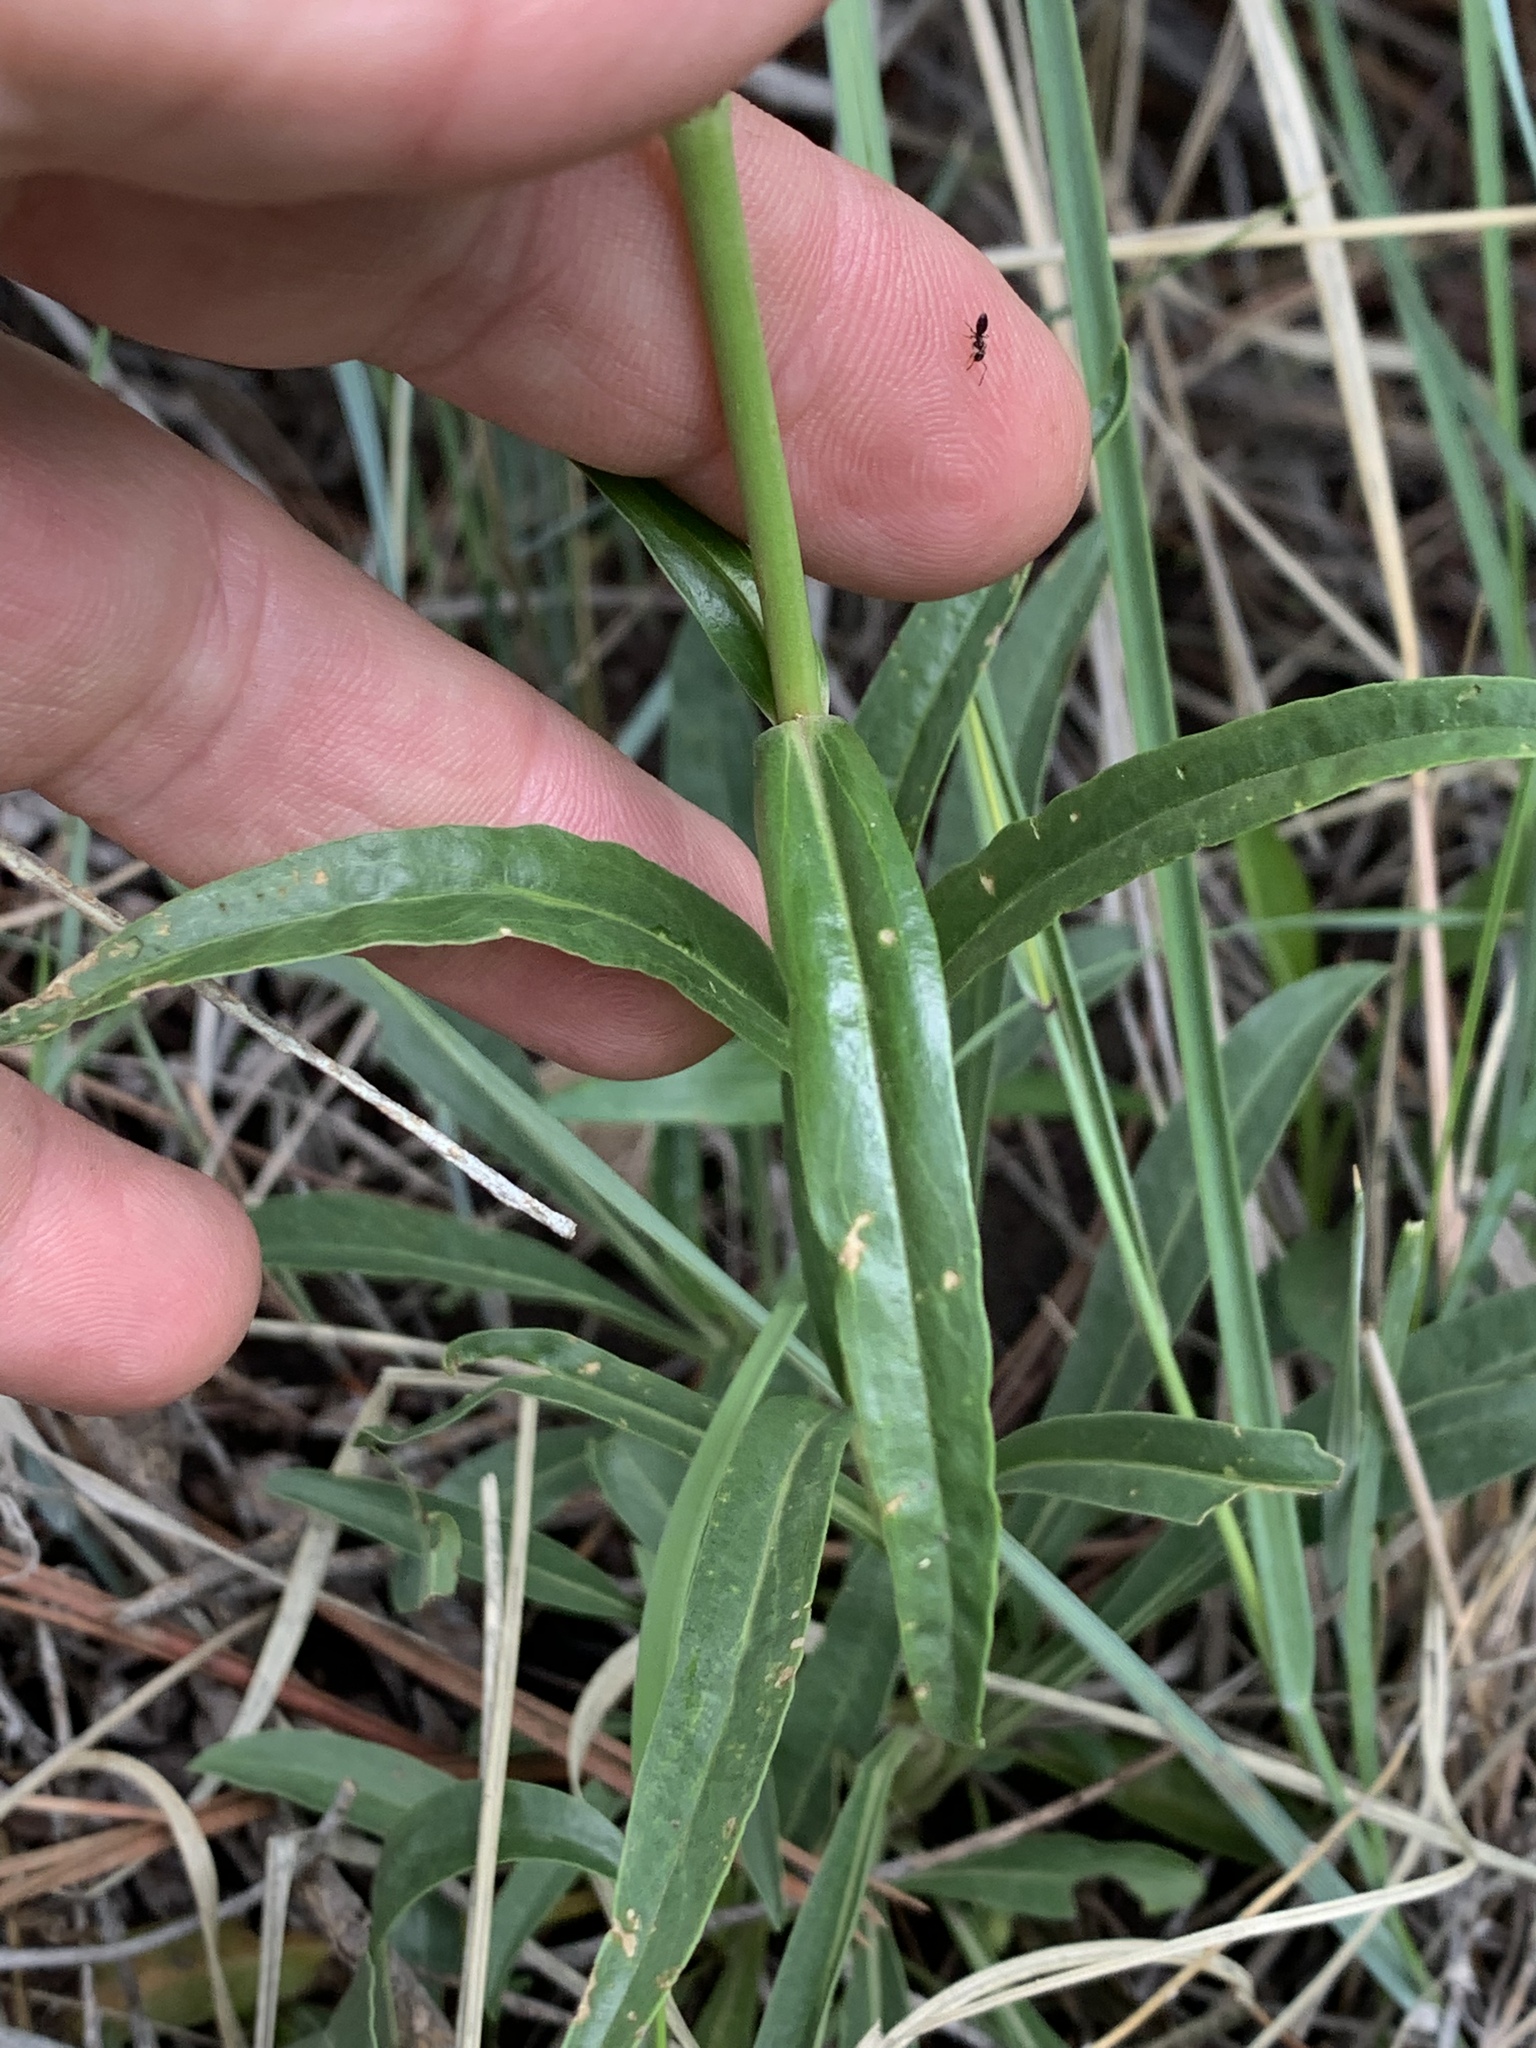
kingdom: Plantae
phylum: Tracheophyta
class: Magnoliopsida
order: Lamiales
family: Plantaginaceae
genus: Penstemon
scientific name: Penstemon strictus
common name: Rocky mountain penstemon
